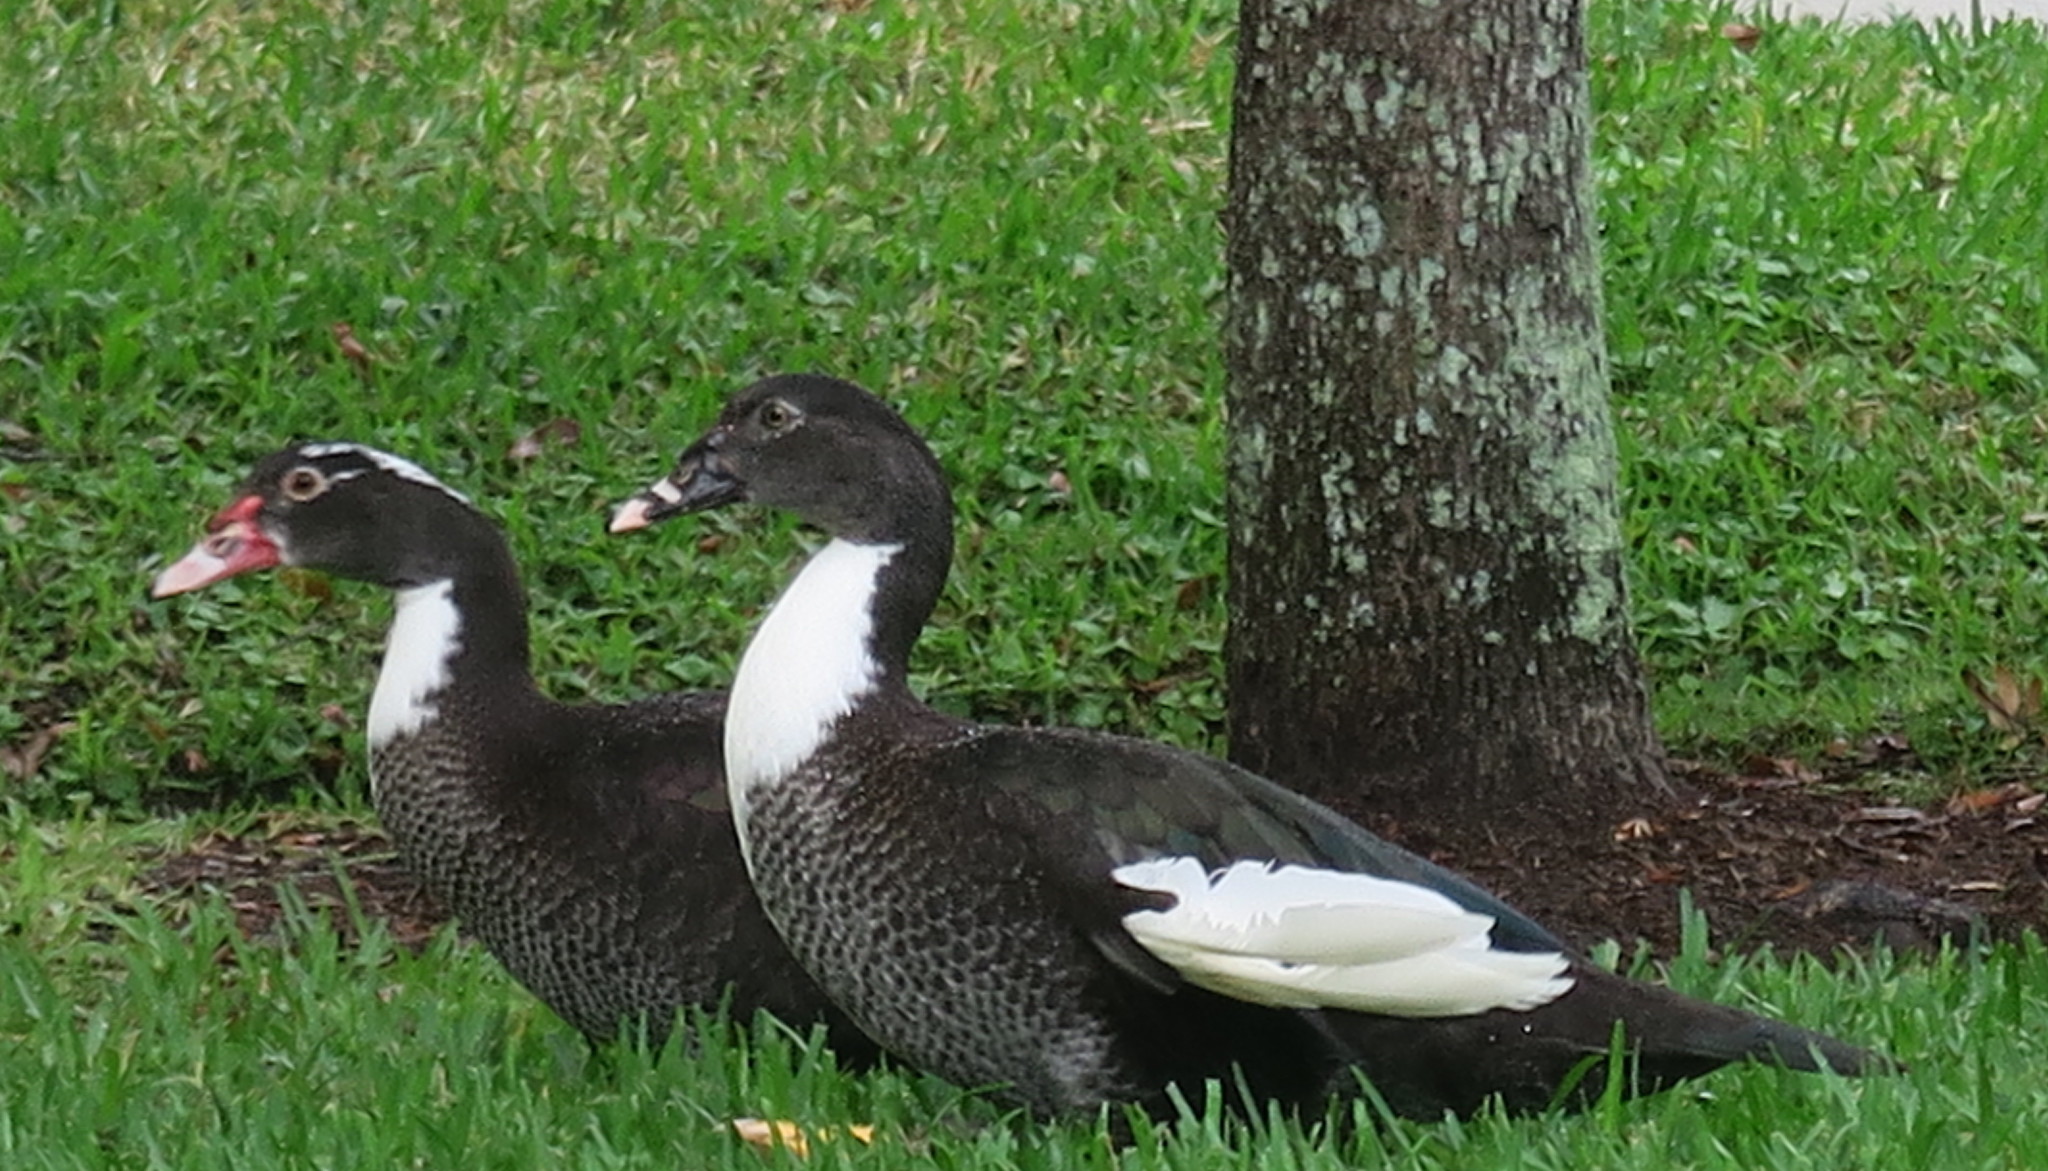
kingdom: Animalia
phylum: Chordata
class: Aves
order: Anseriformes
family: Anatidae
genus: Cairina
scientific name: Cairina moschata
